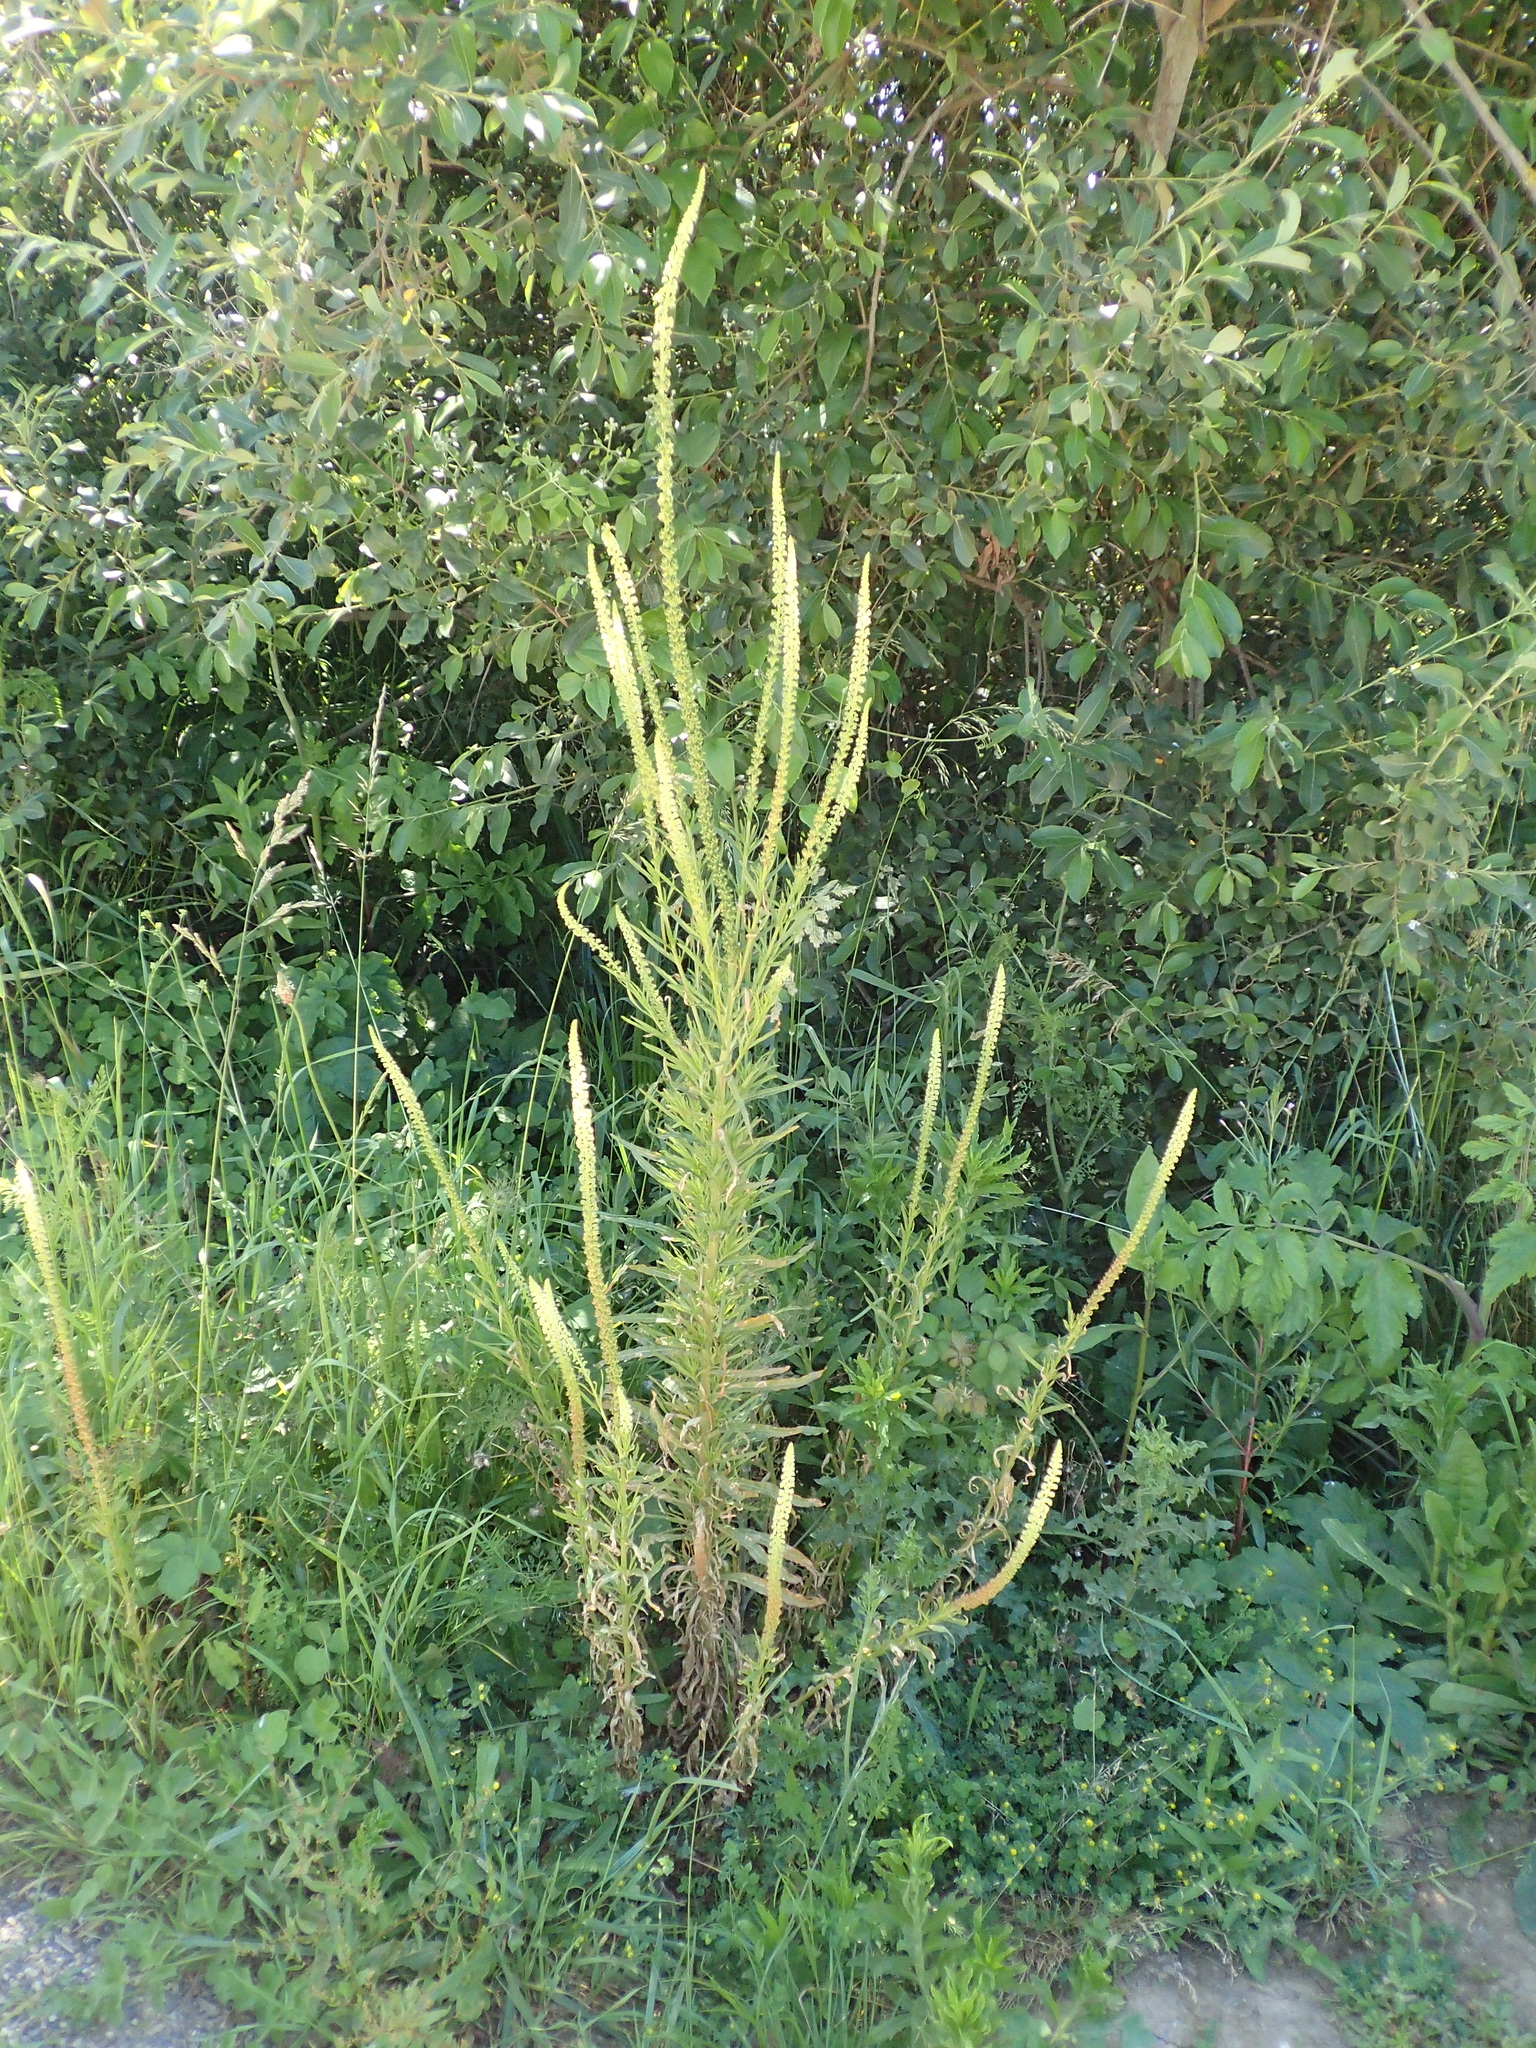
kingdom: Plantae
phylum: Tracheophyta
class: Magnoliopsida
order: Brassicales
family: Resedaceae
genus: Reseda
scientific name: Reseda luteola
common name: Weld
